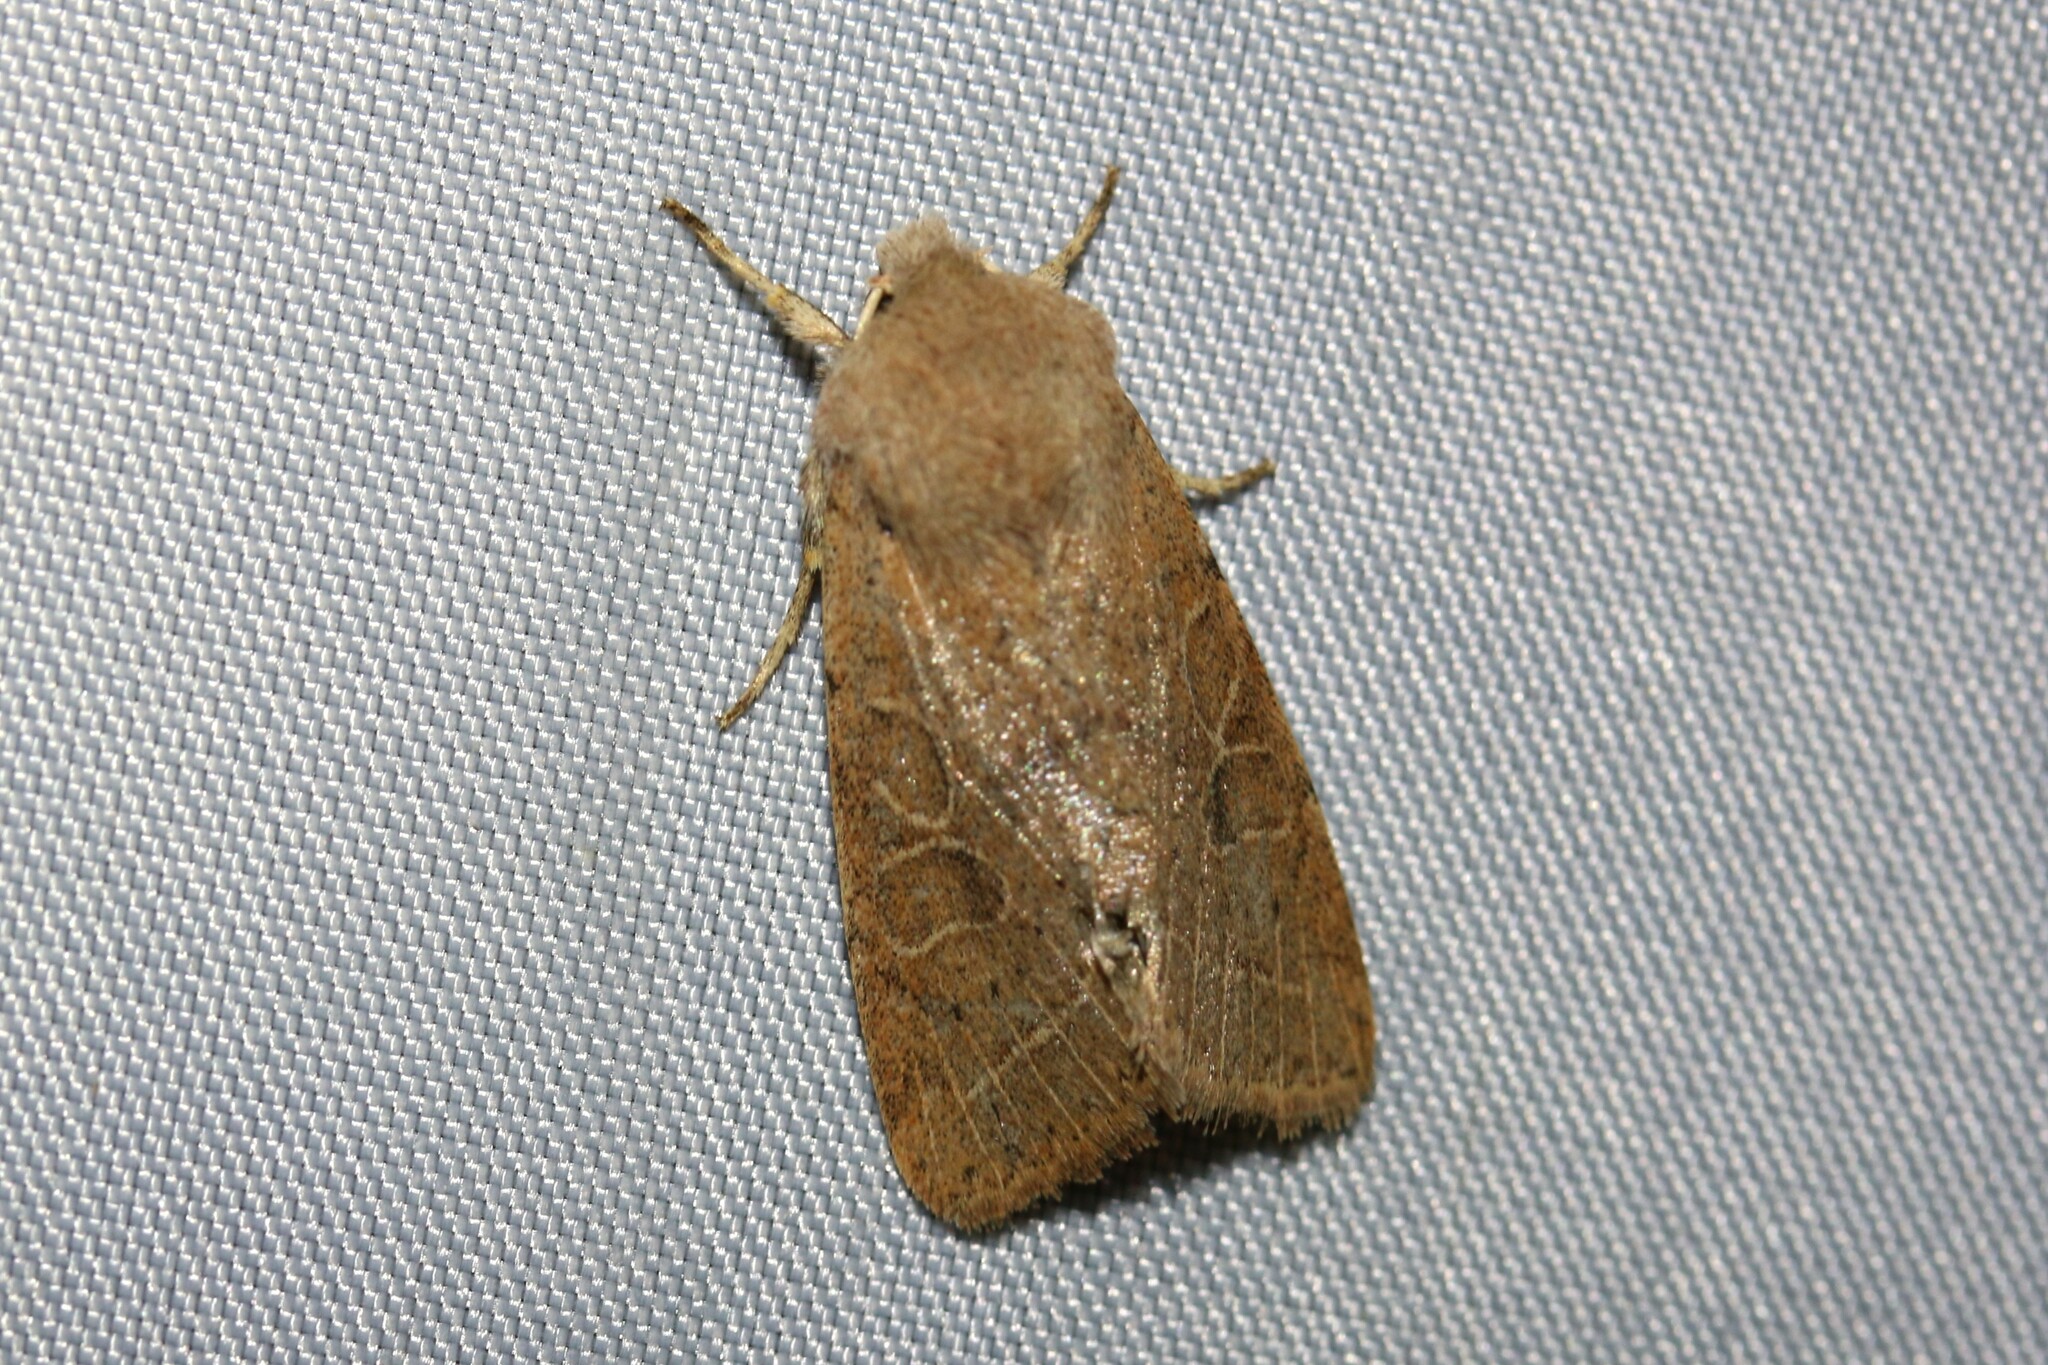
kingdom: Animalia
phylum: Arthropoda
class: Insecta
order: Lepidoptera
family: Noctuidae
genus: Orthosia
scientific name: Orthosia cerasi
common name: Common quaker
